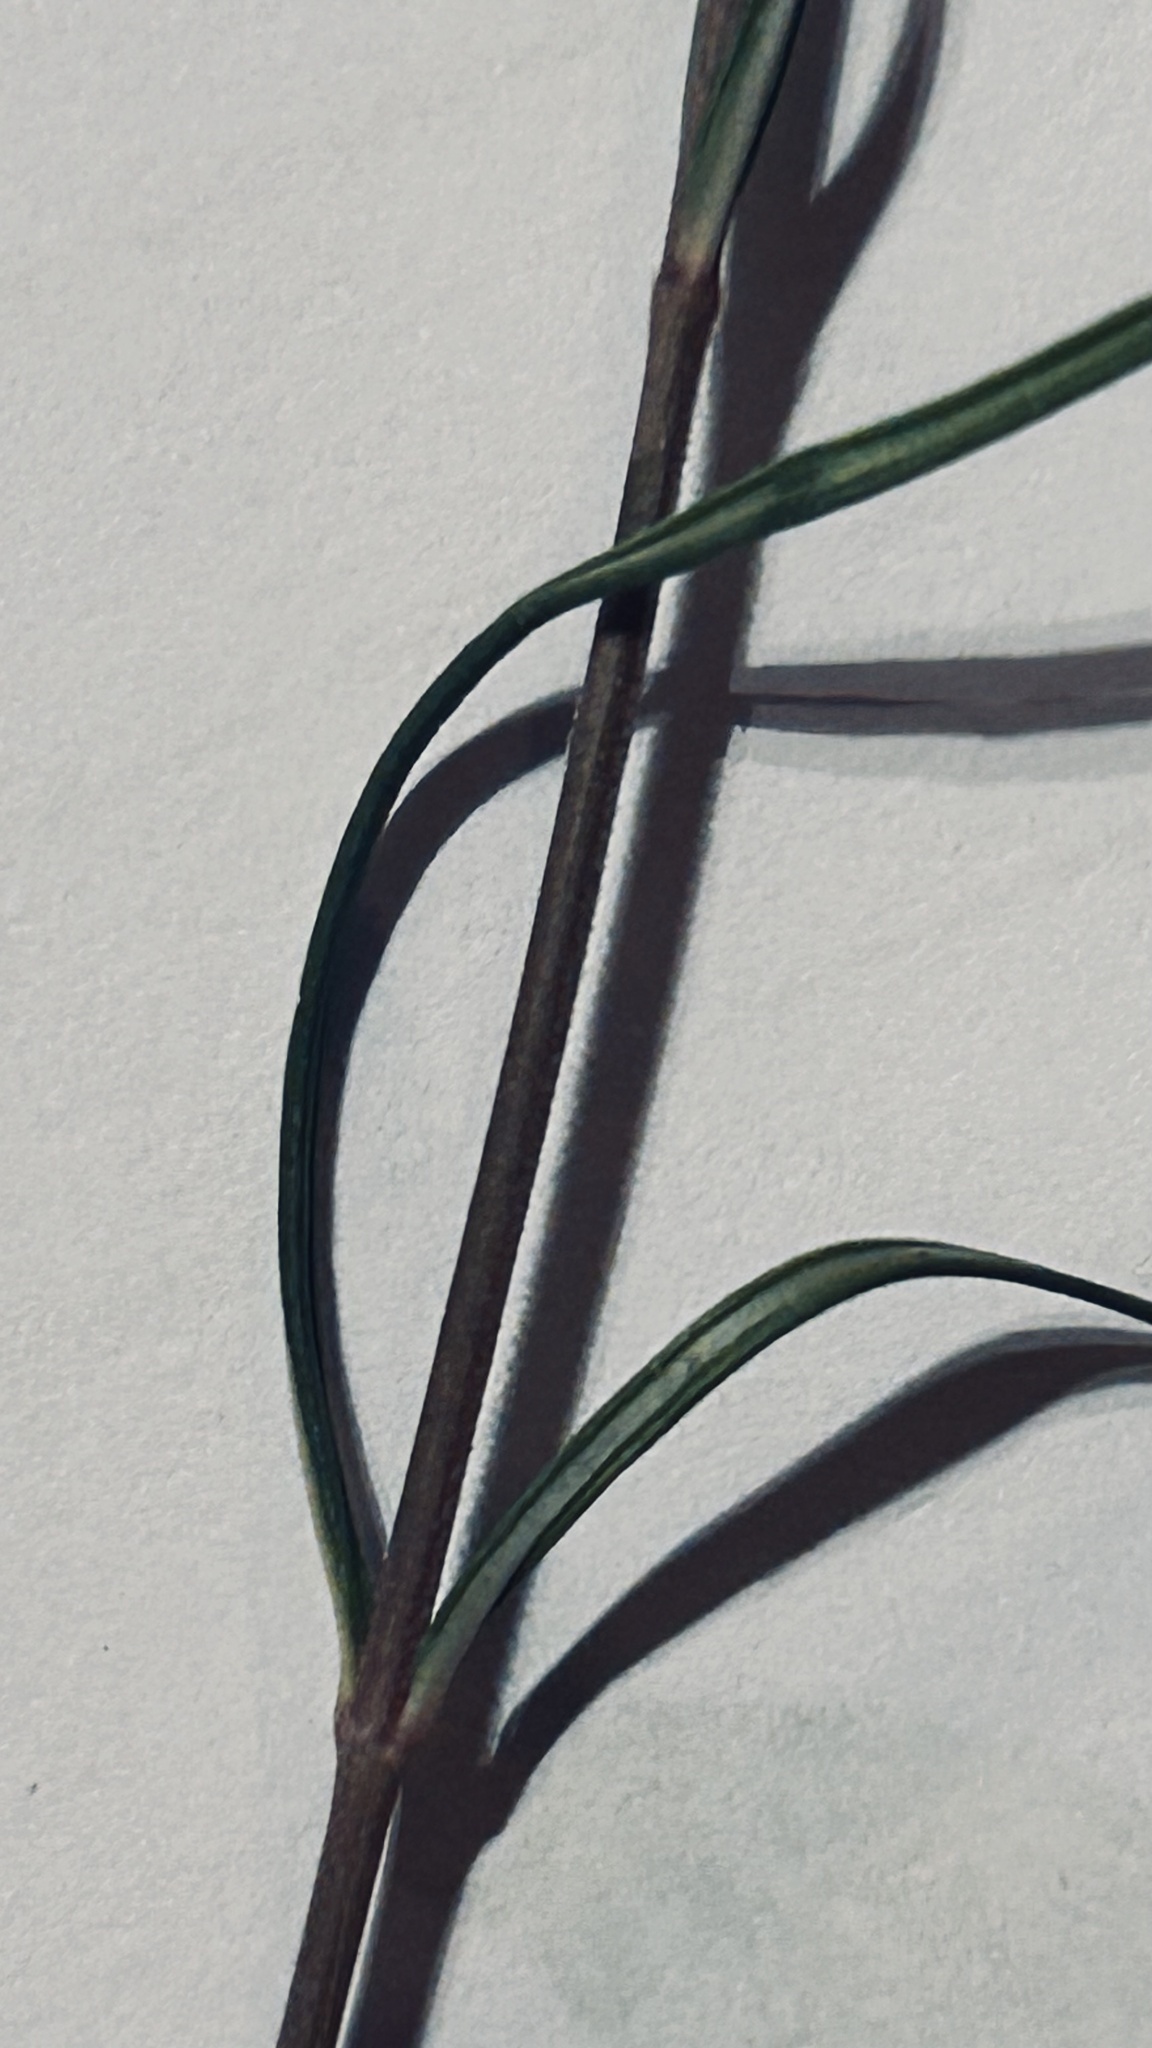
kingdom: Plantae
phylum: Tracheophyta
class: Magnoliopsida
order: Gentianales
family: Apocynaceae
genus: Schizoglossum
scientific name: Schizoglossum aschersonianum
